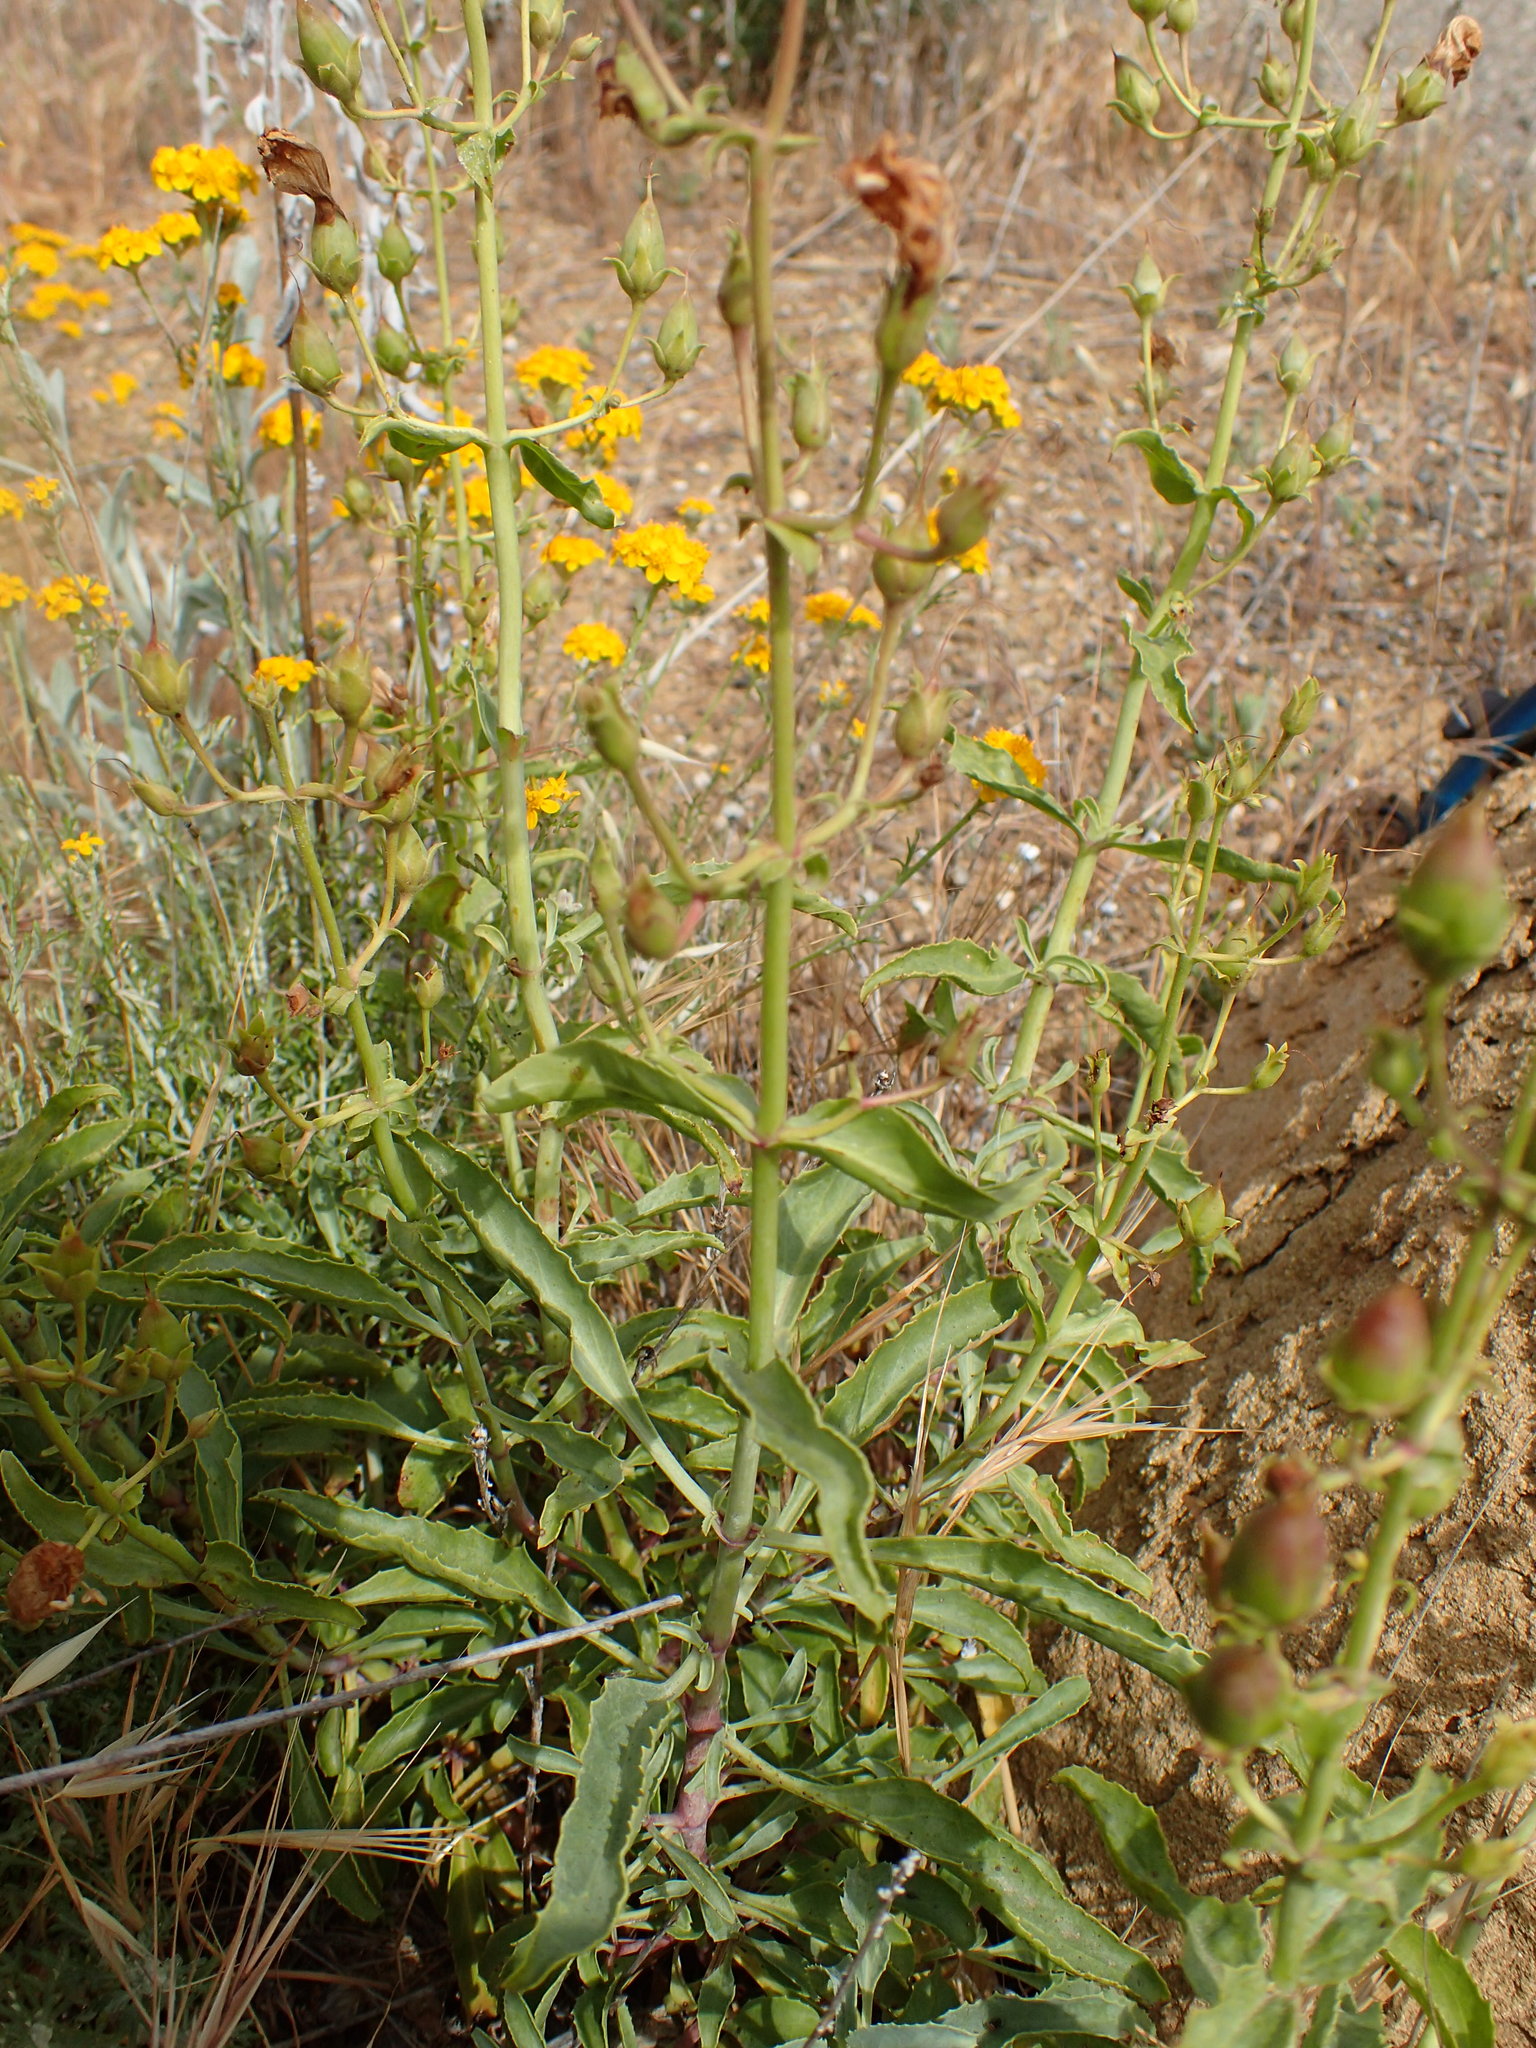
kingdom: Plantae
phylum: Tracheophyta
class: Magnoliopsida
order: Lamiales
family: Plantaginaceae
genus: Penstemon
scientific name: Penstemon grinnellii
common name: Grinnell's beardtongue
